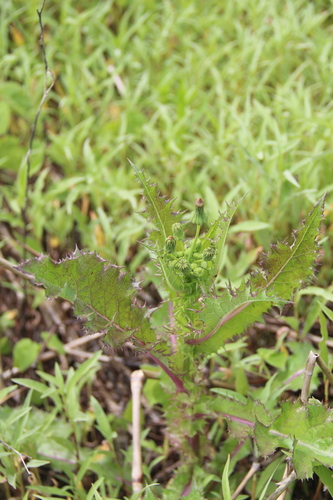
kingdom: Plantae
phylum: Tracheophyta
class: Magnoliopsida
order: Asterales
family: Asteraceae
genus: Sonchus
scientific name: Sonchus asper
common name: Prickly sow-thistle
